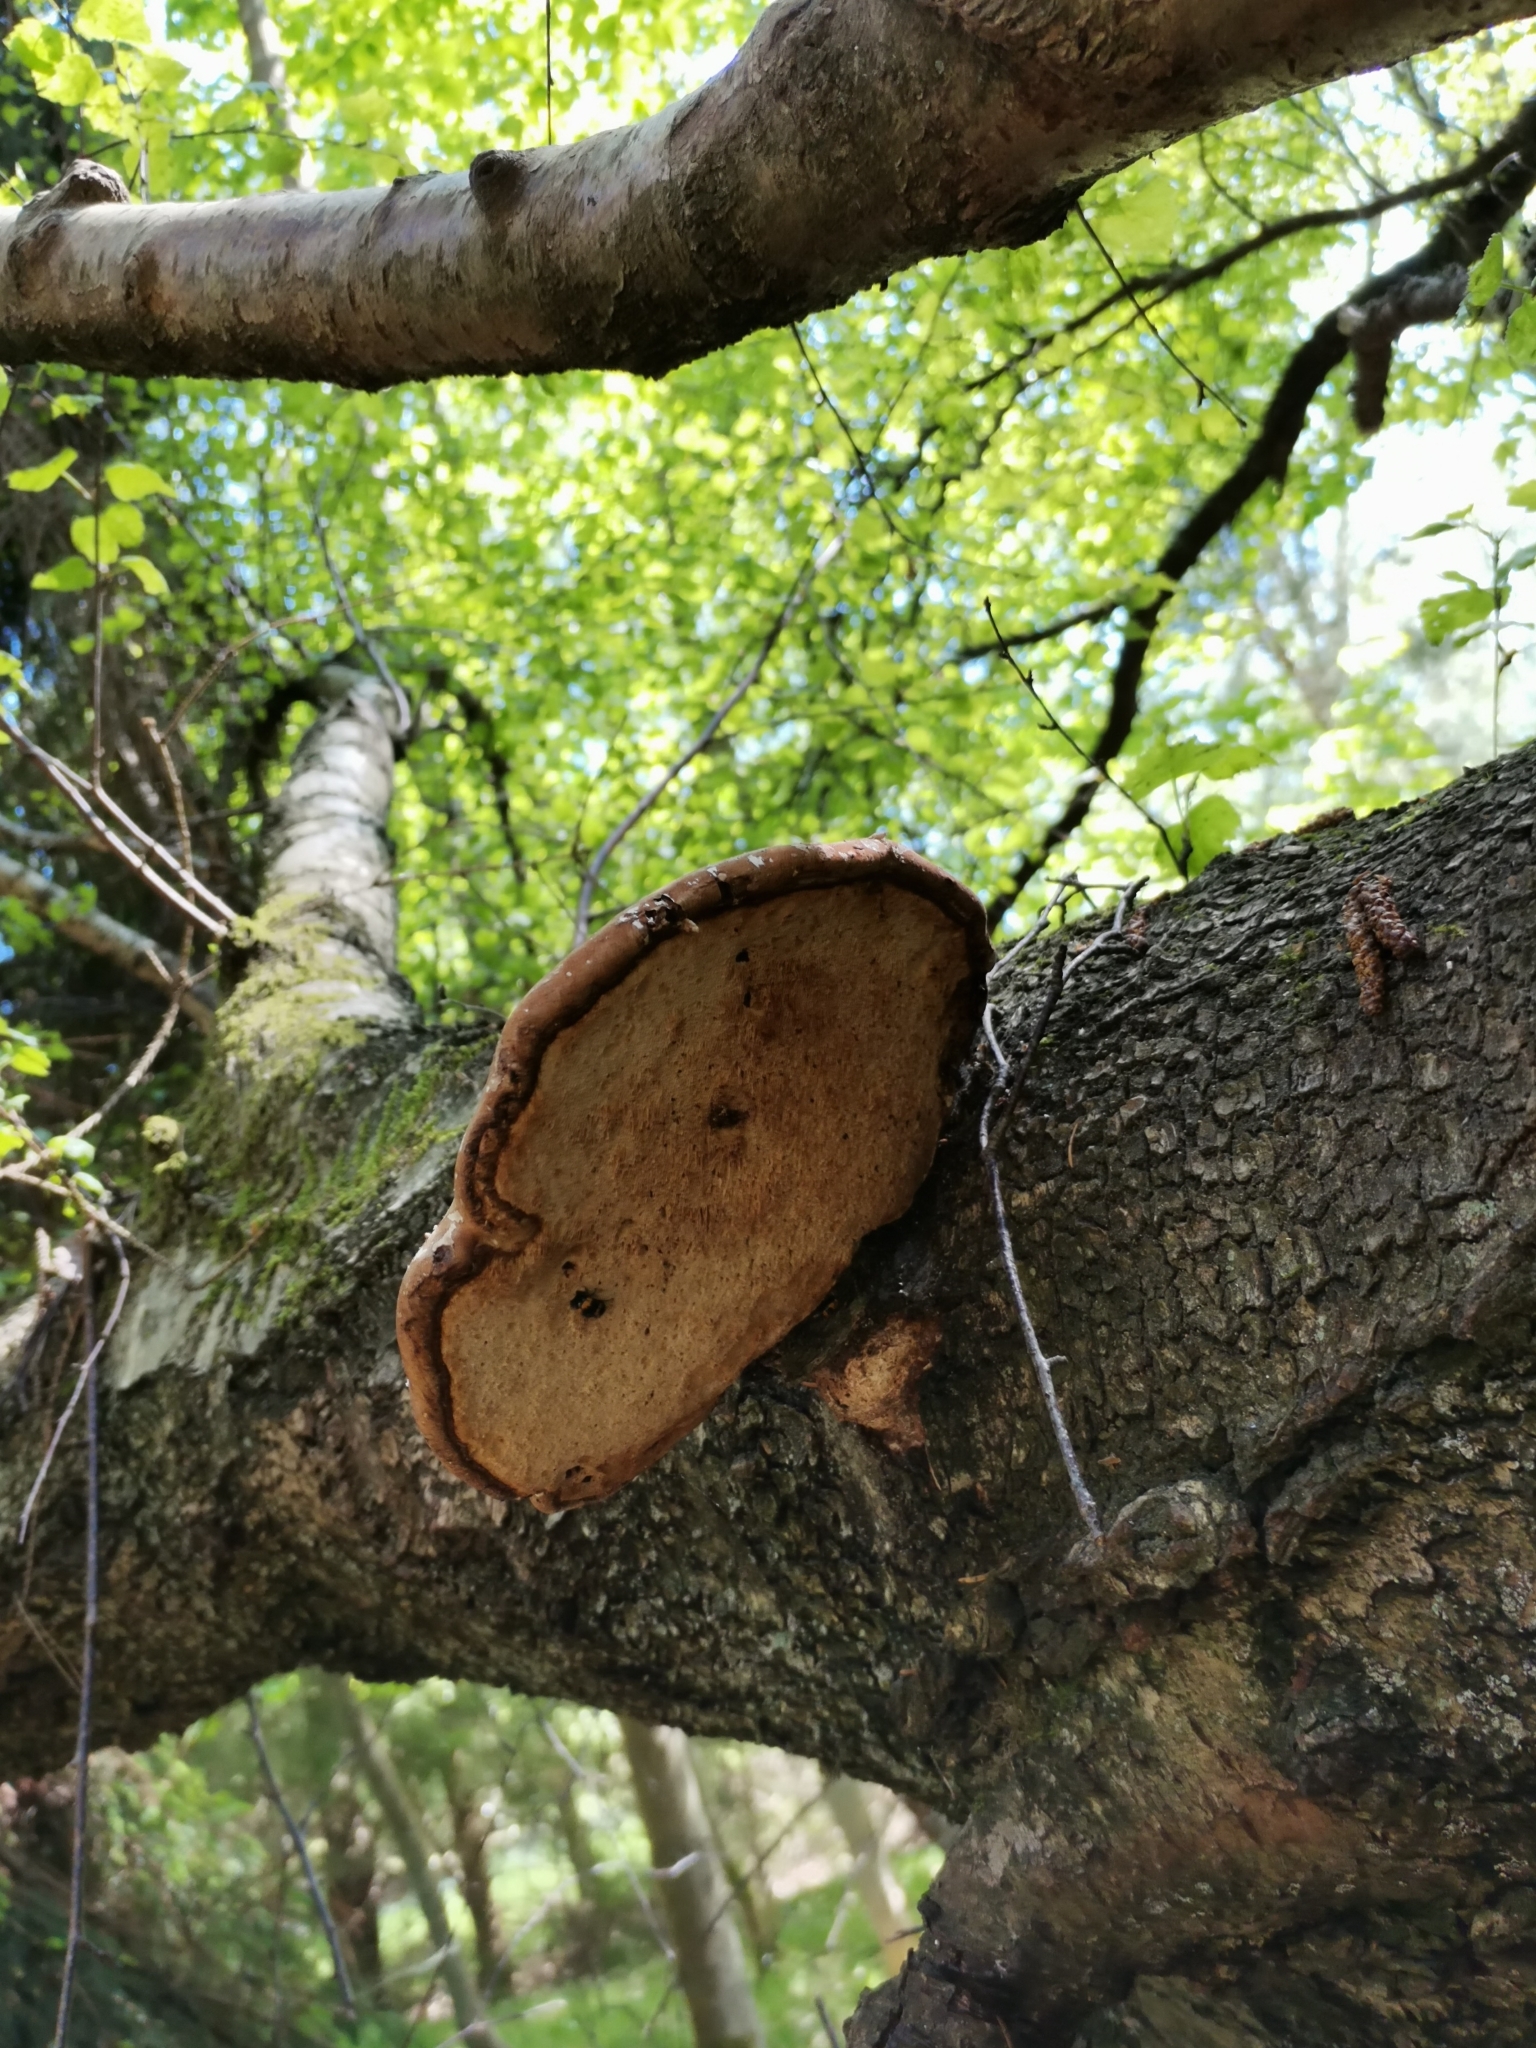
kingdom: Fungi
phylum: Basidiomycota
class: Agaricomycetes
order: Polyporales
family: Fomitopsidaceae
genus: Fomitopsis
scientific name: Fomitopsis betulina
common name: Birch polypore
